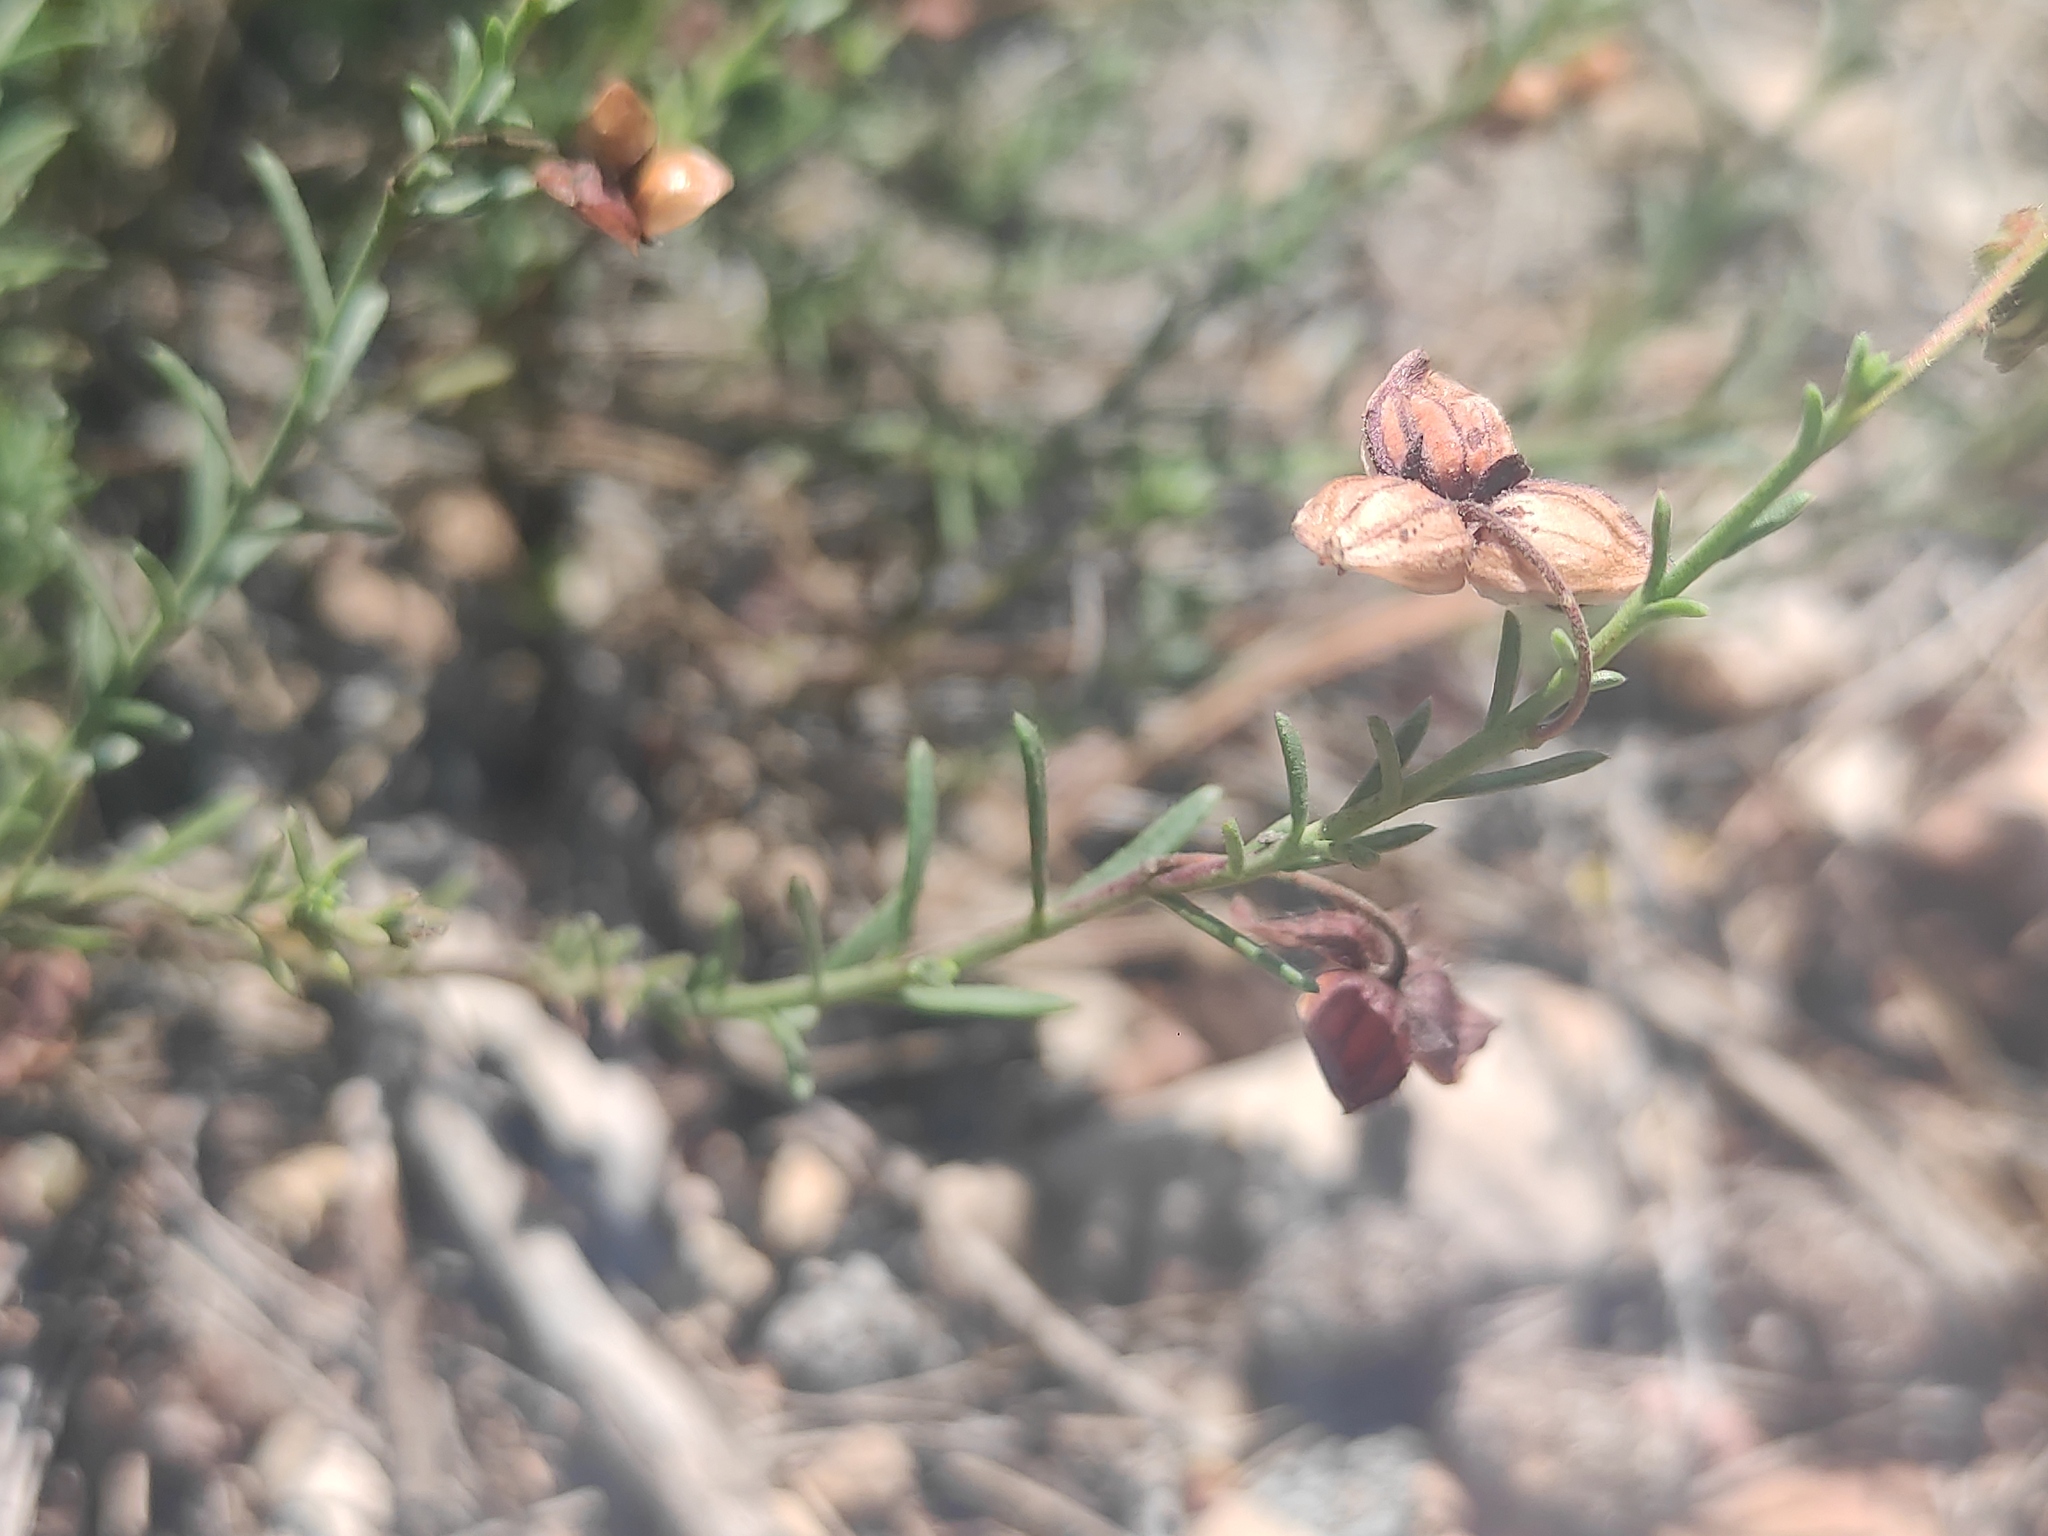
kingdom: Plantae
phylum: Tracheophyta
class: Magnoliopsida
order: Malvales
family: Cistaceae
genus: Fumana
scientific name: Fumana ericifolia
